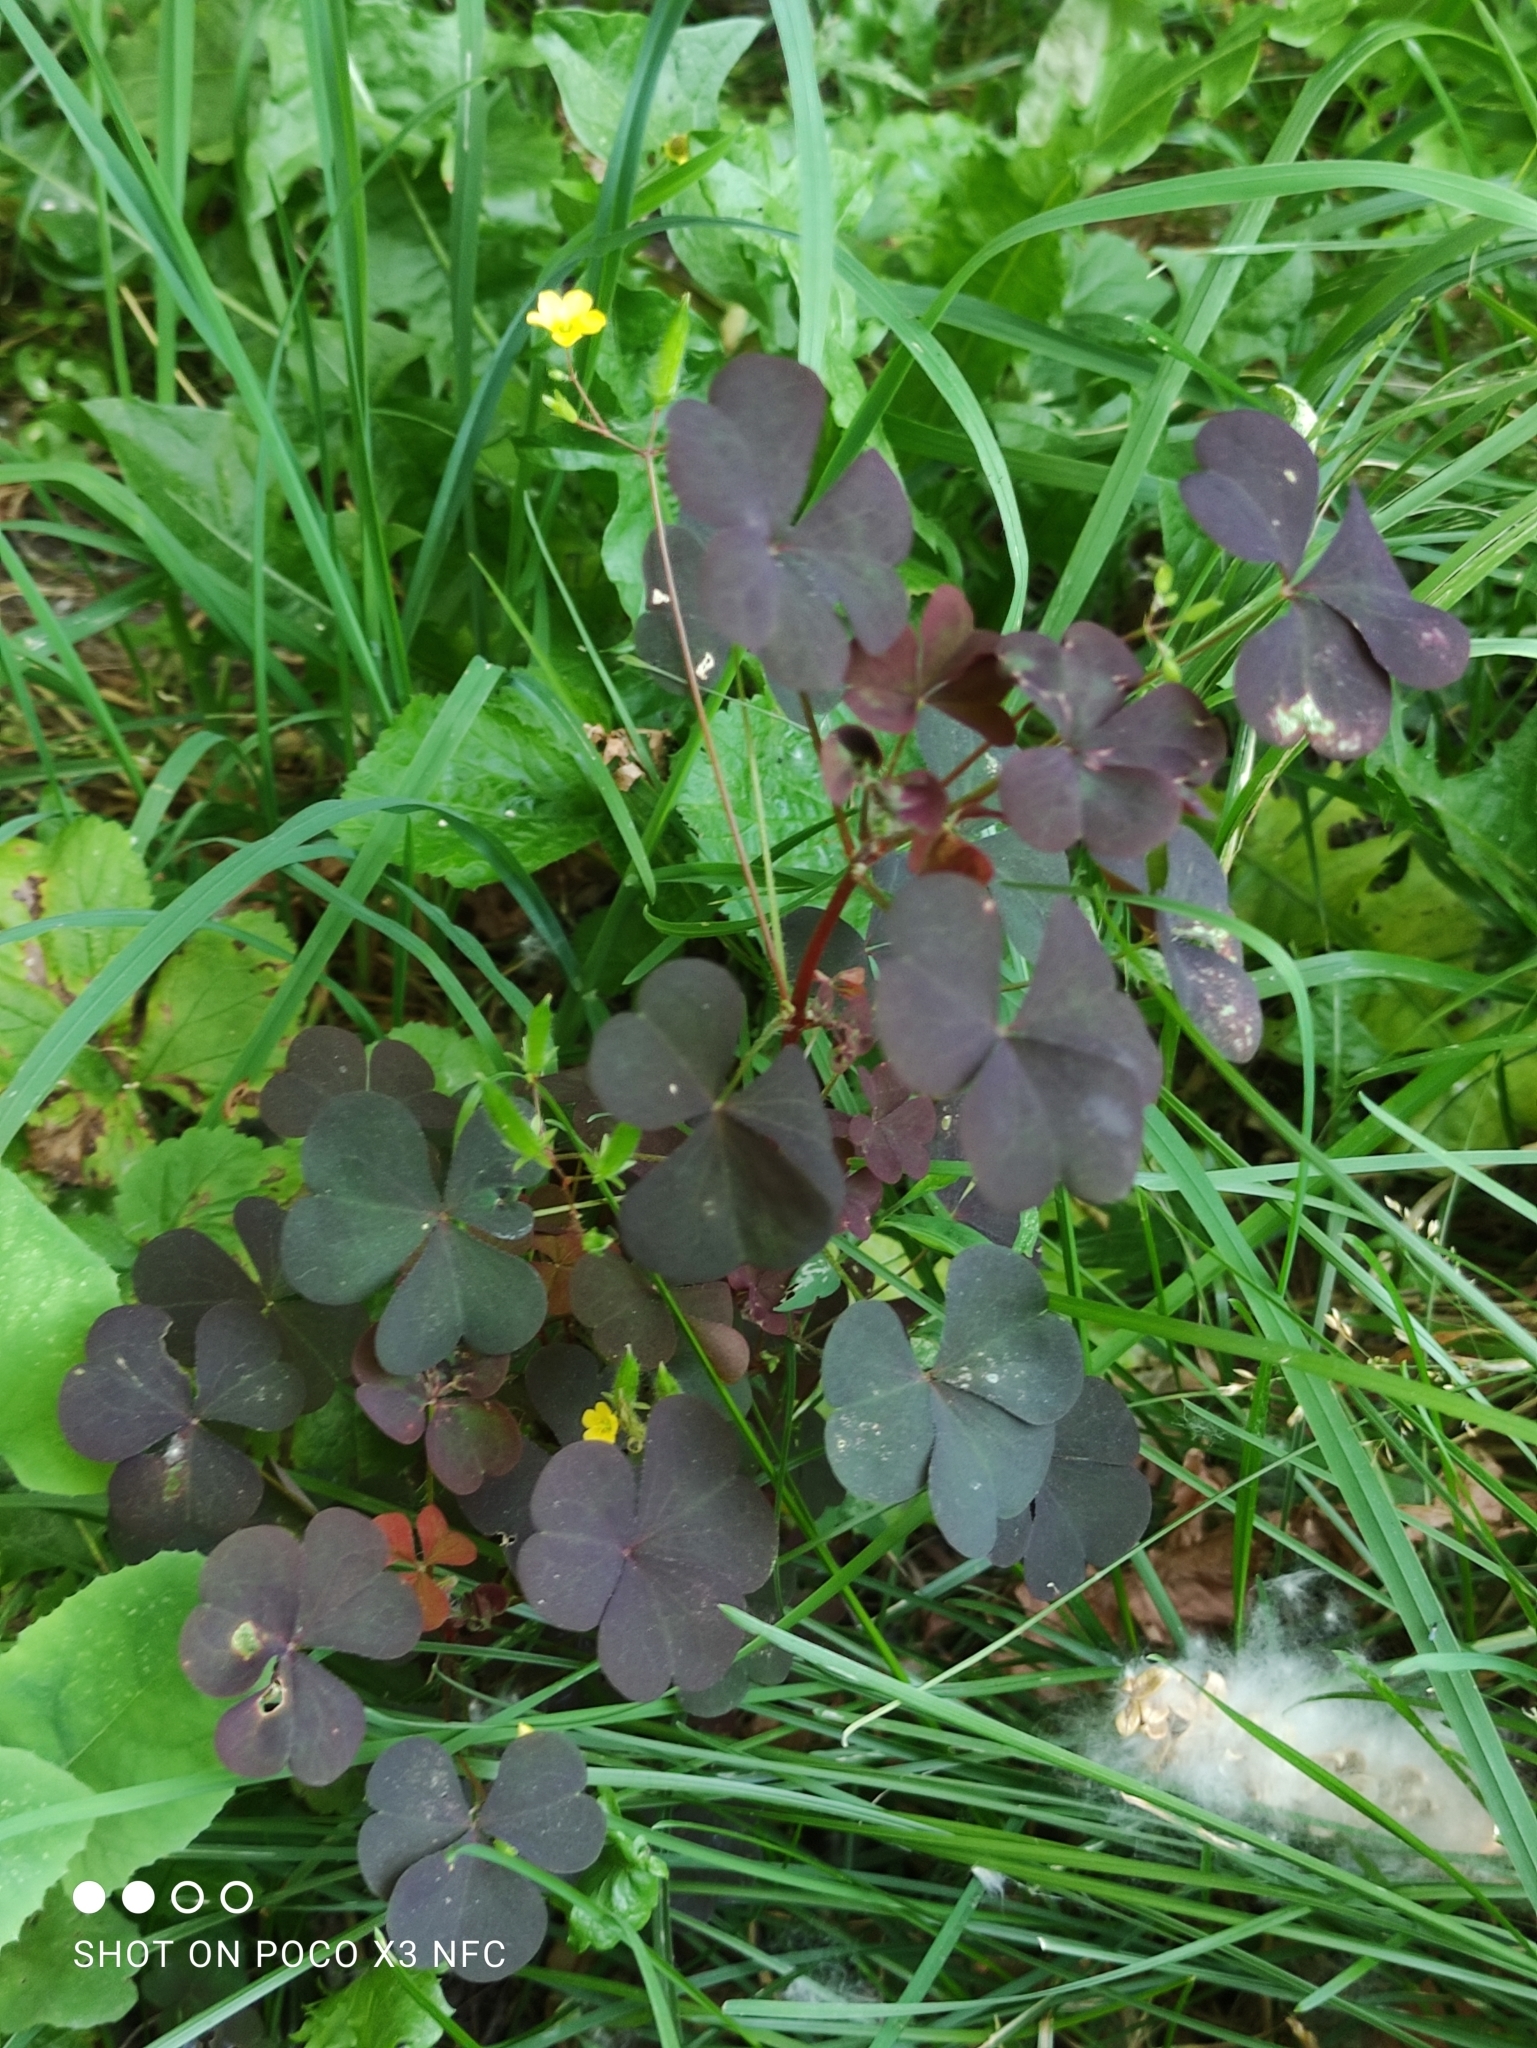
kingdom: Plantae
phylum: Tracheophyta
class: Magnoliopsida
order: Oxalidales
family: Oxalidaceae
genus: Oxalis
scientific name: Oxalis stricta
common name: Upright yellow-sorrel
